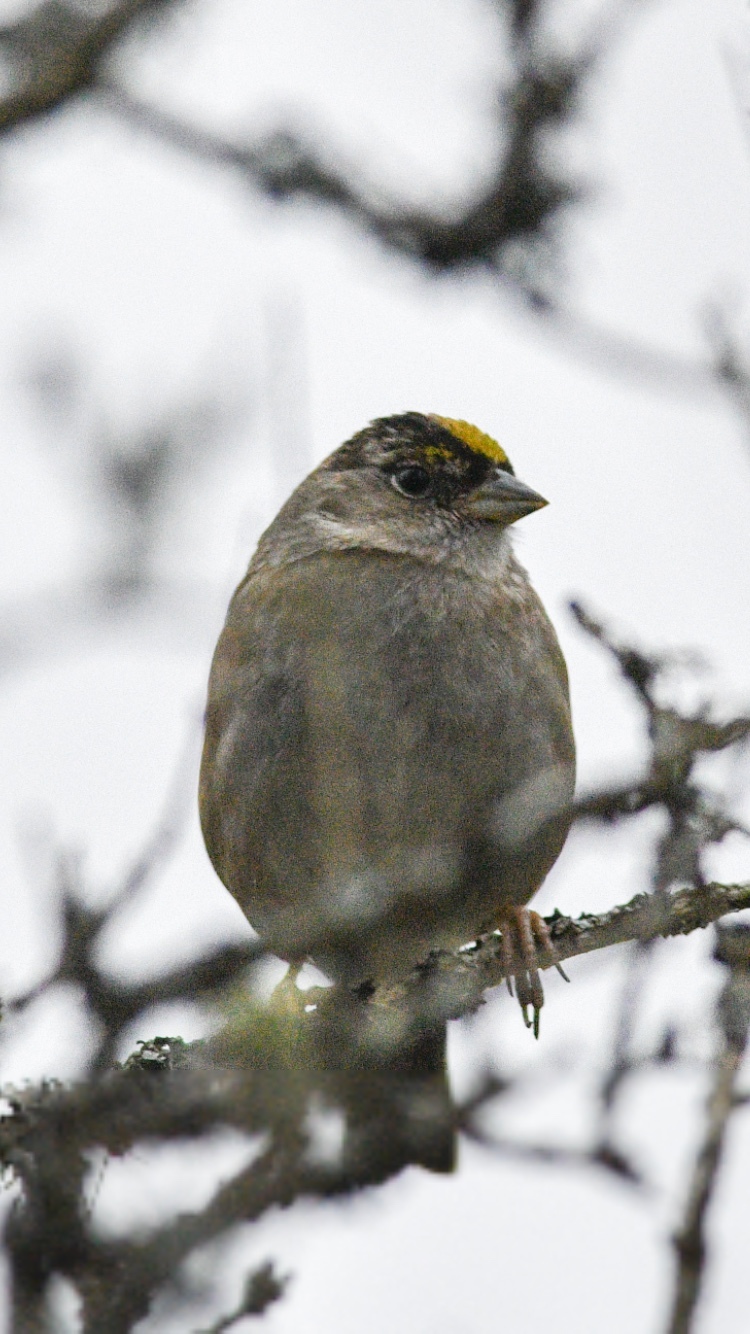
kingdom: Animalia
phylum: Chordata
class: Aves
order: Passeriformes
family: Passerellidae
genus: Zonotrichia
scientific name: Zonotrichia atricapilla
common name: Golden-crowned sparrow
